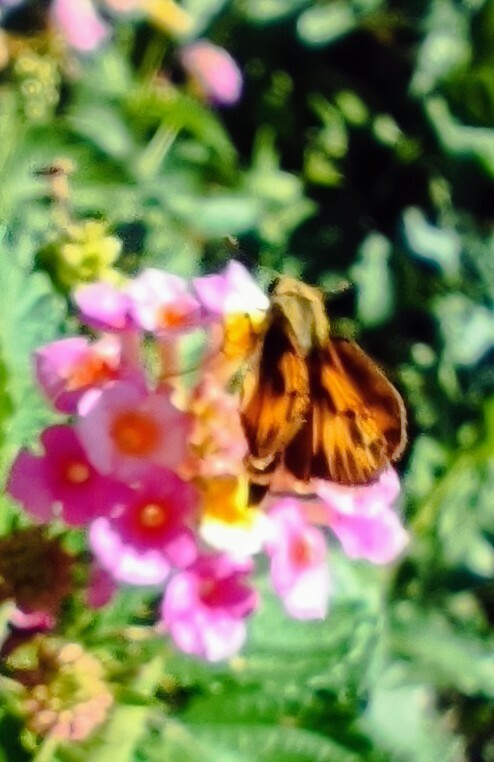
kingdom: Animalia
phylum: Arthropoda
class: Insecta
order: Lepidoptera
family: Hesperiidae
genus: Hylephila
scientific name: Hylephila phyleus
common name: Fiery skipper
